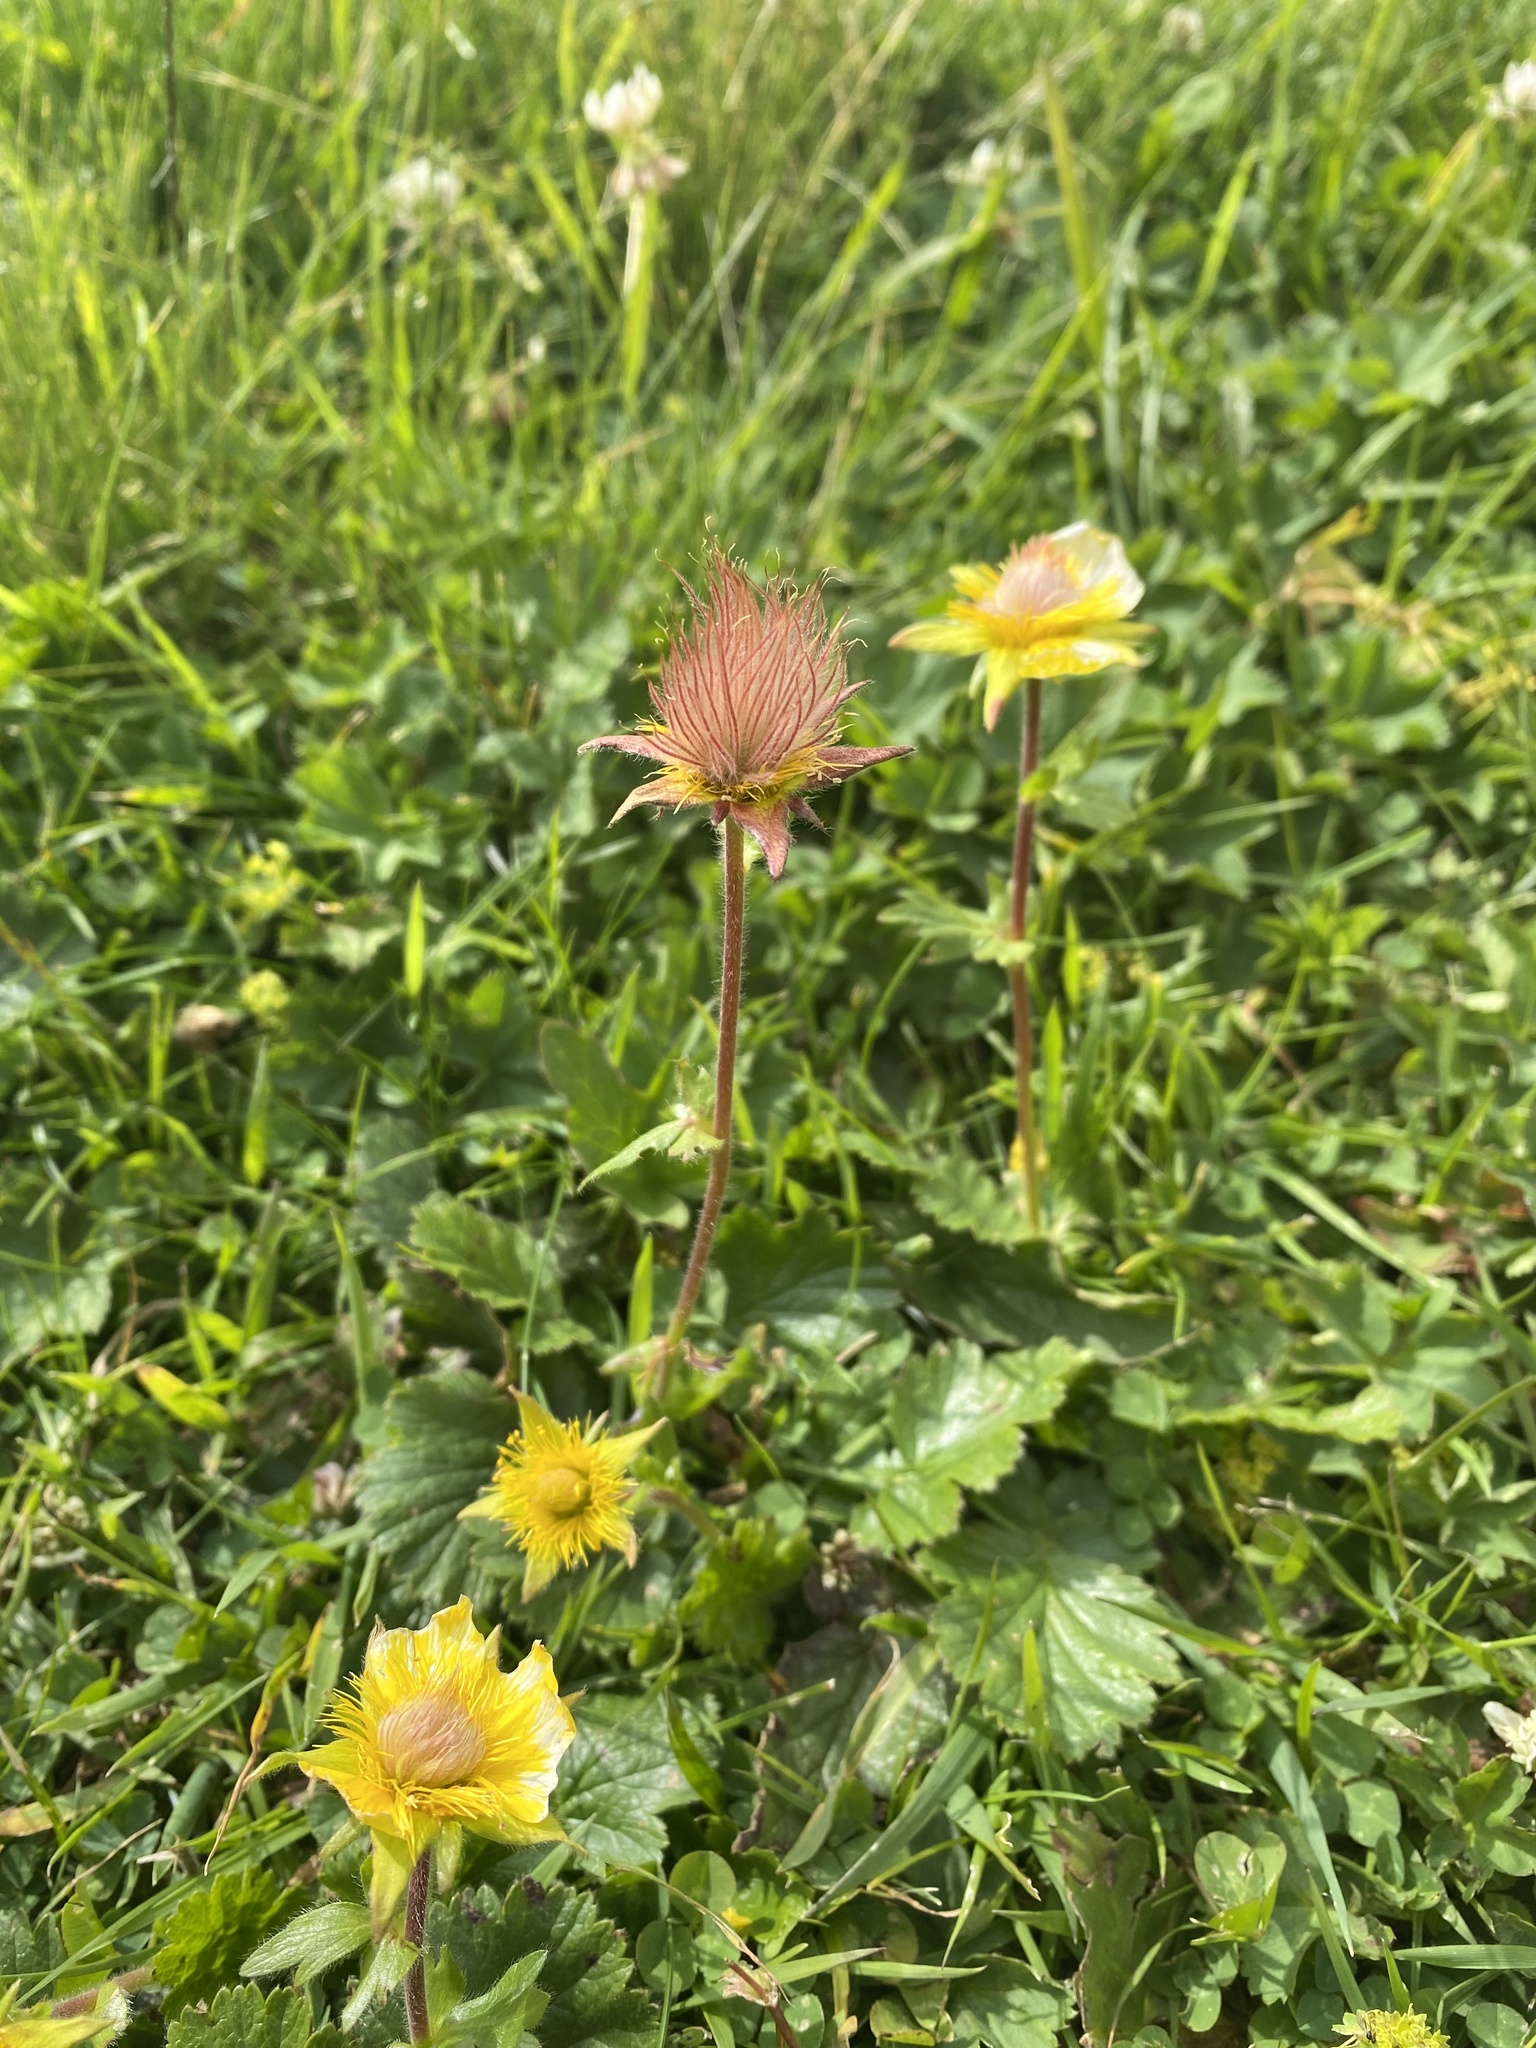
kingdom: Plantae
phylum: Tracheophyta
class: Magnoliopsida
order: Rosales
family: Rosaceae
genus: Geum
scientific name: Geum montanum
